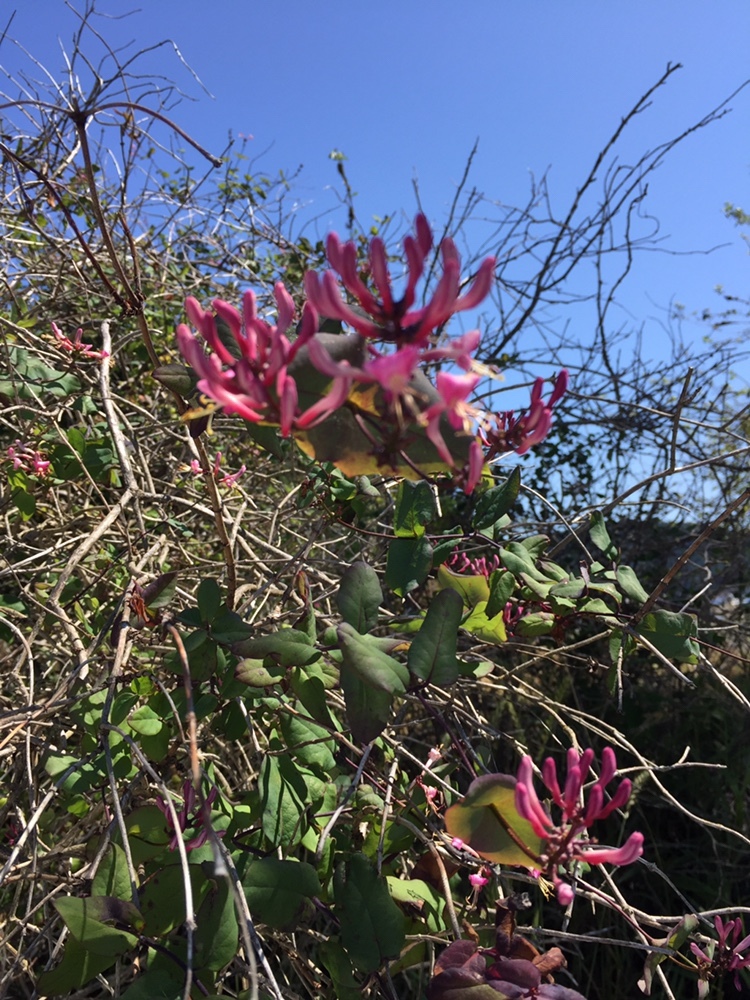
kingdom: Plantae
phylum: Tracheophyta
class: Magnoliopsida
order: Dipsacales
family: Caprifoliaceae
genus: Lonicera
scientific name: Lonicera hispidula
